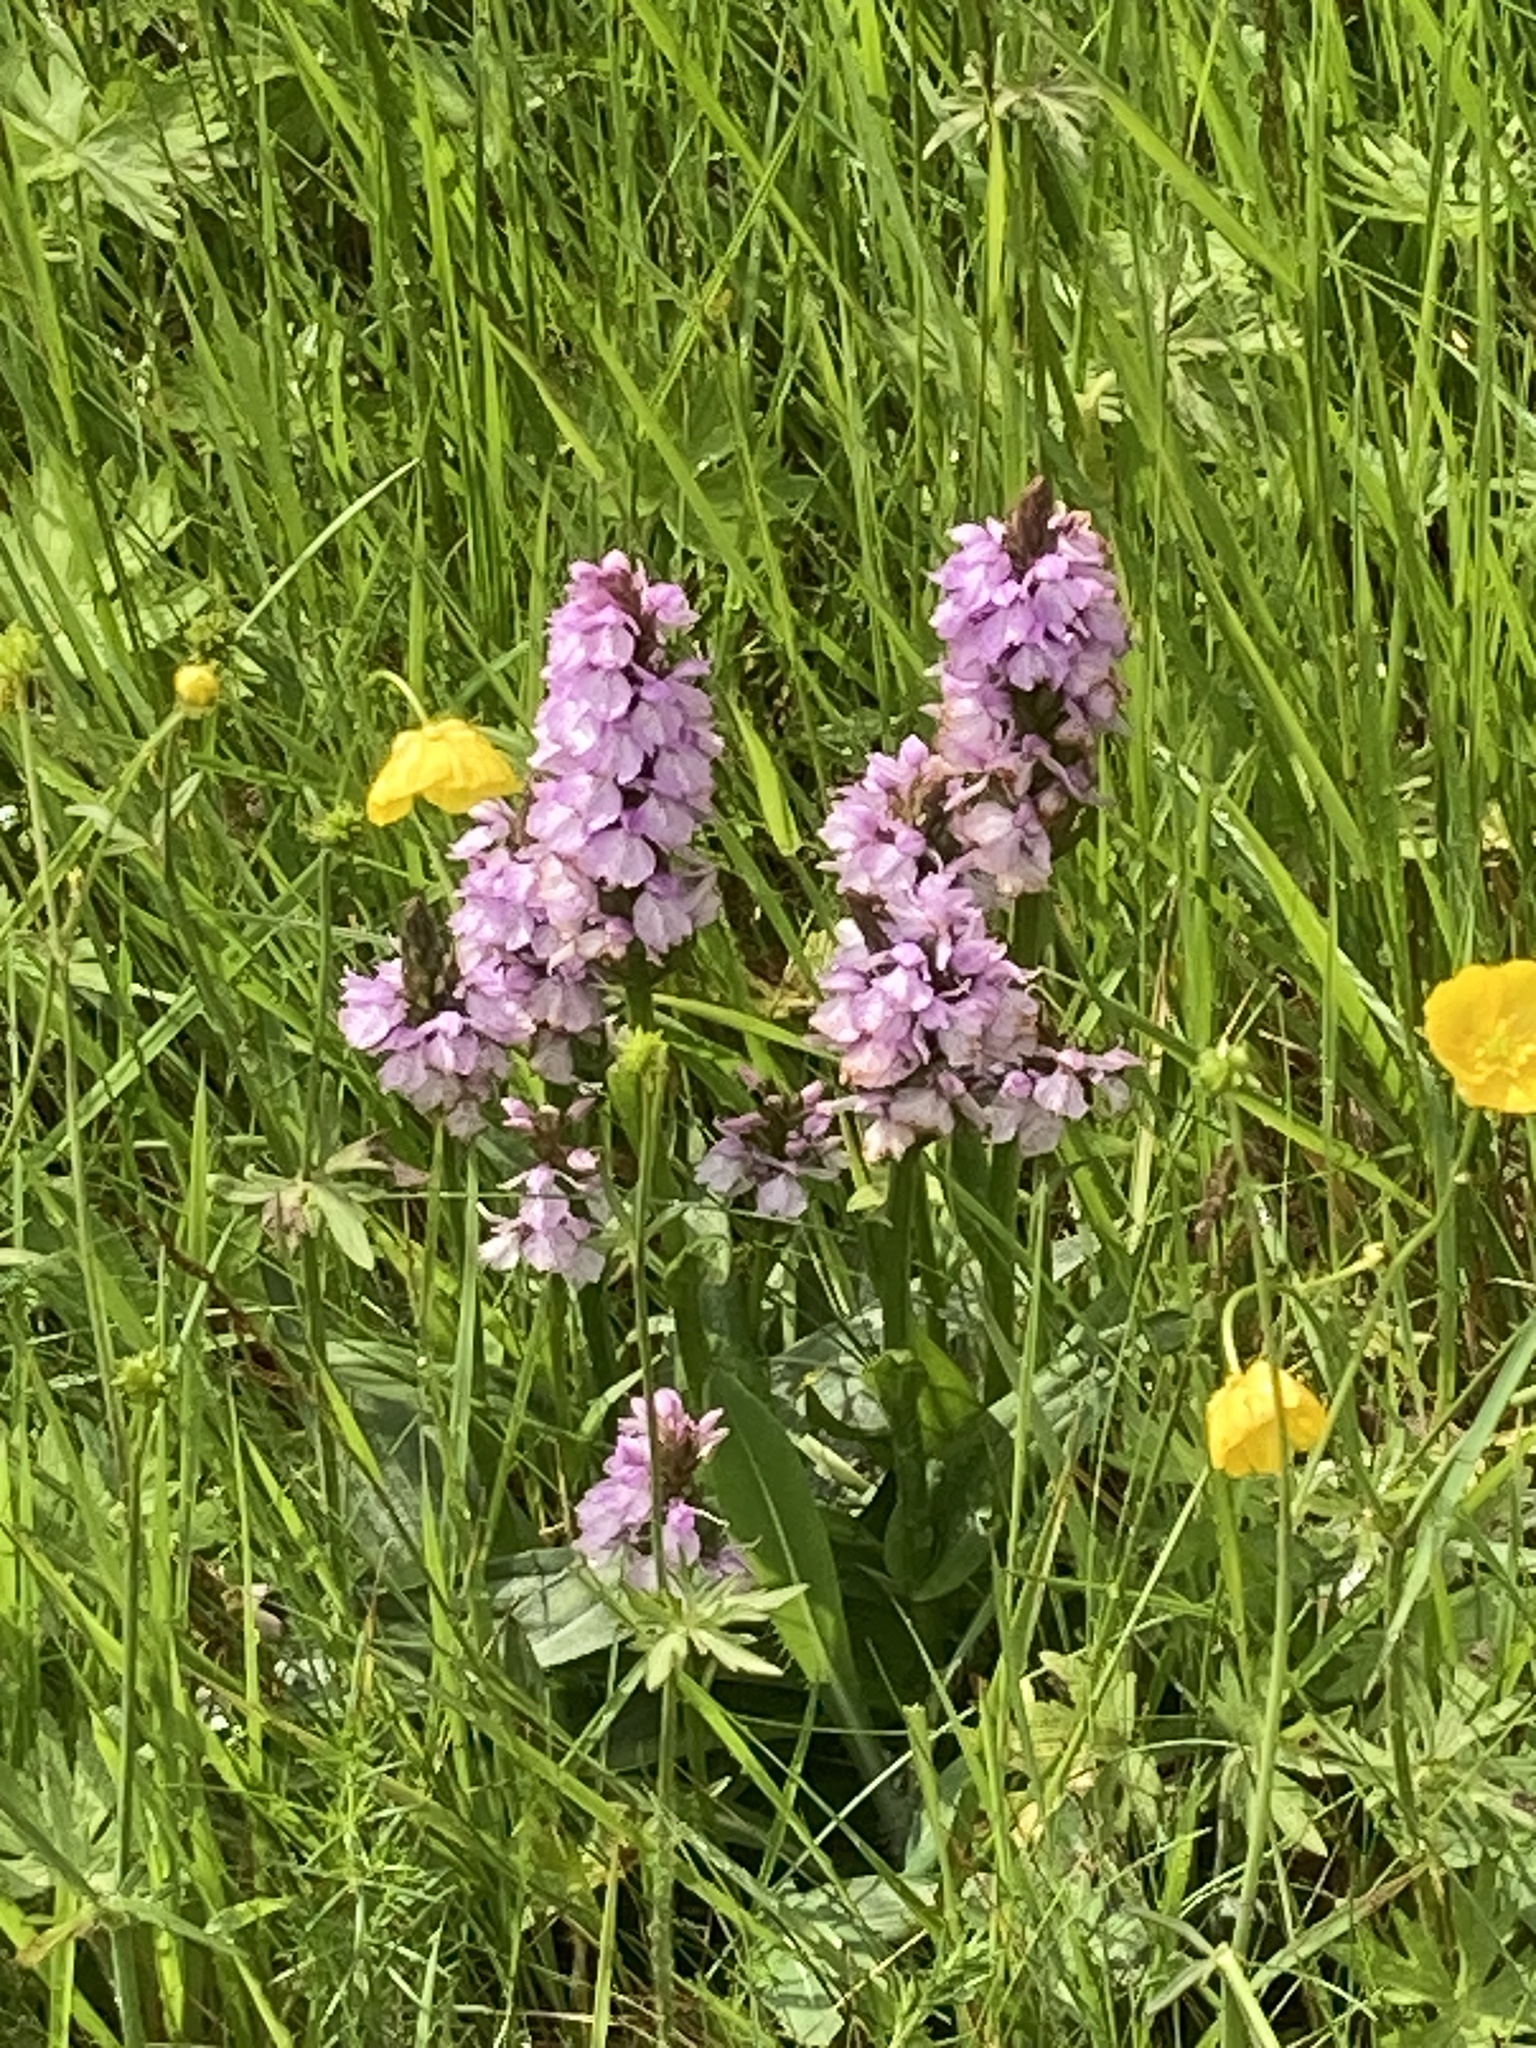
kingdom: Plantae
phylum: Tracheophyta
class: Liliopsida
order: Asparagales
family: Orchidaceae
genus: Dactylorhiza
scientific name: Dactylorhiza maculata
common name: Heath spotted-orchid
